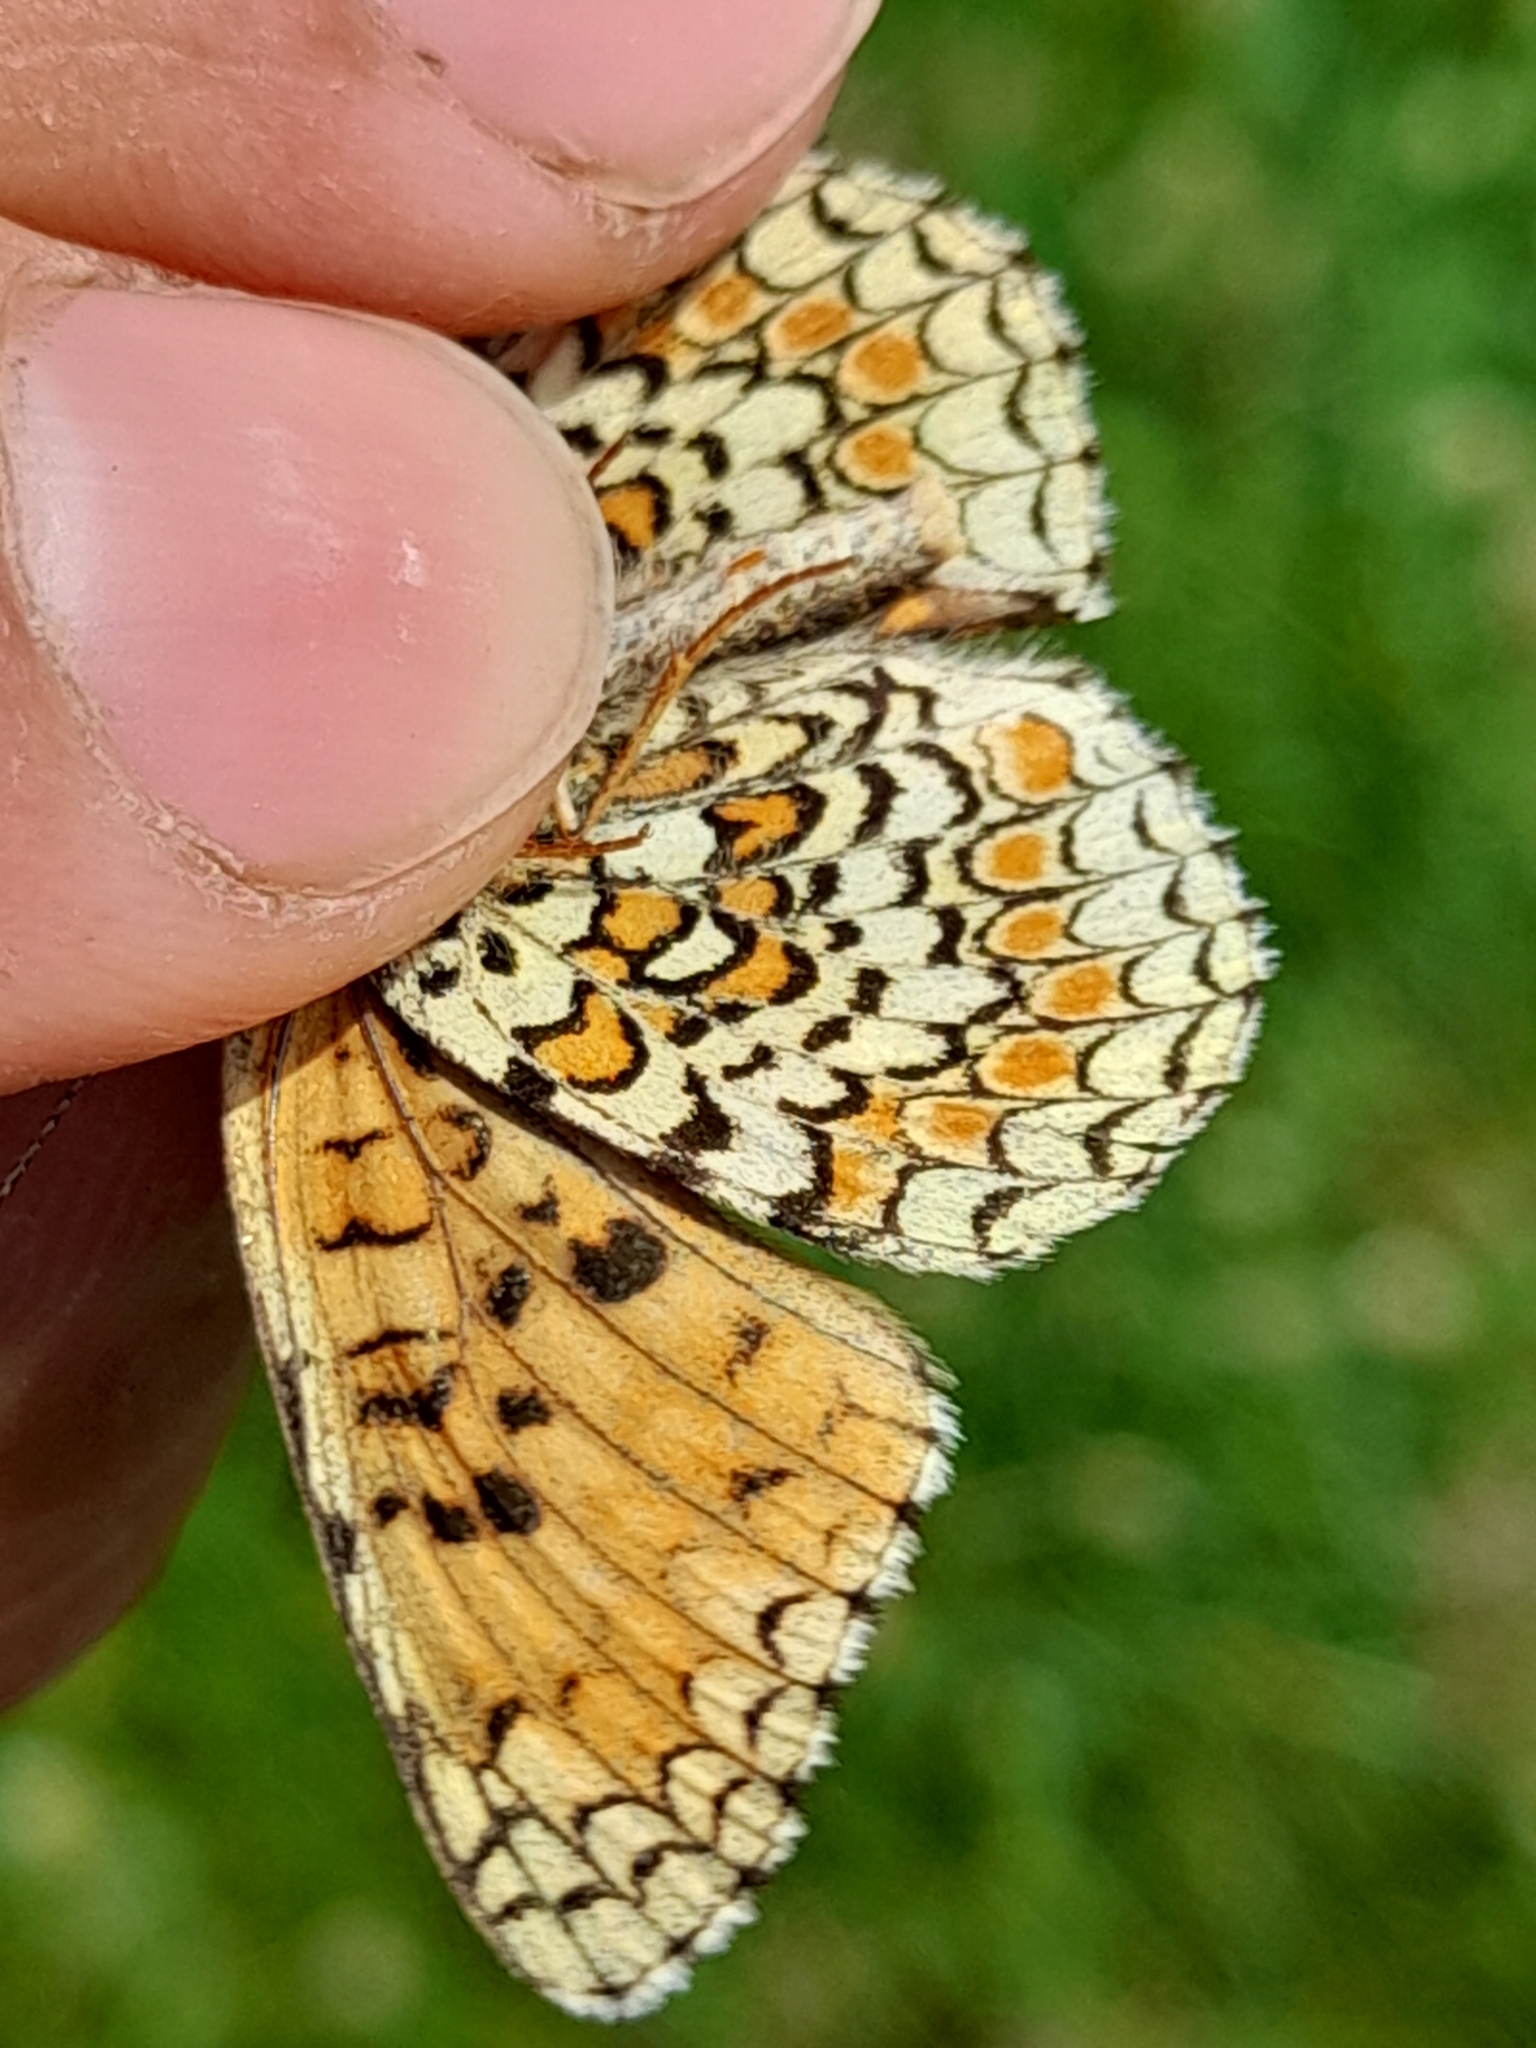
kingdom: Animalia
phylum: Arthropoda
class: Insecta
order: Lepidoptera
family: Nymphalidae
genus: Melitaea
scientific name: Melitaea phoebe
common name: Knapweed fritillary
